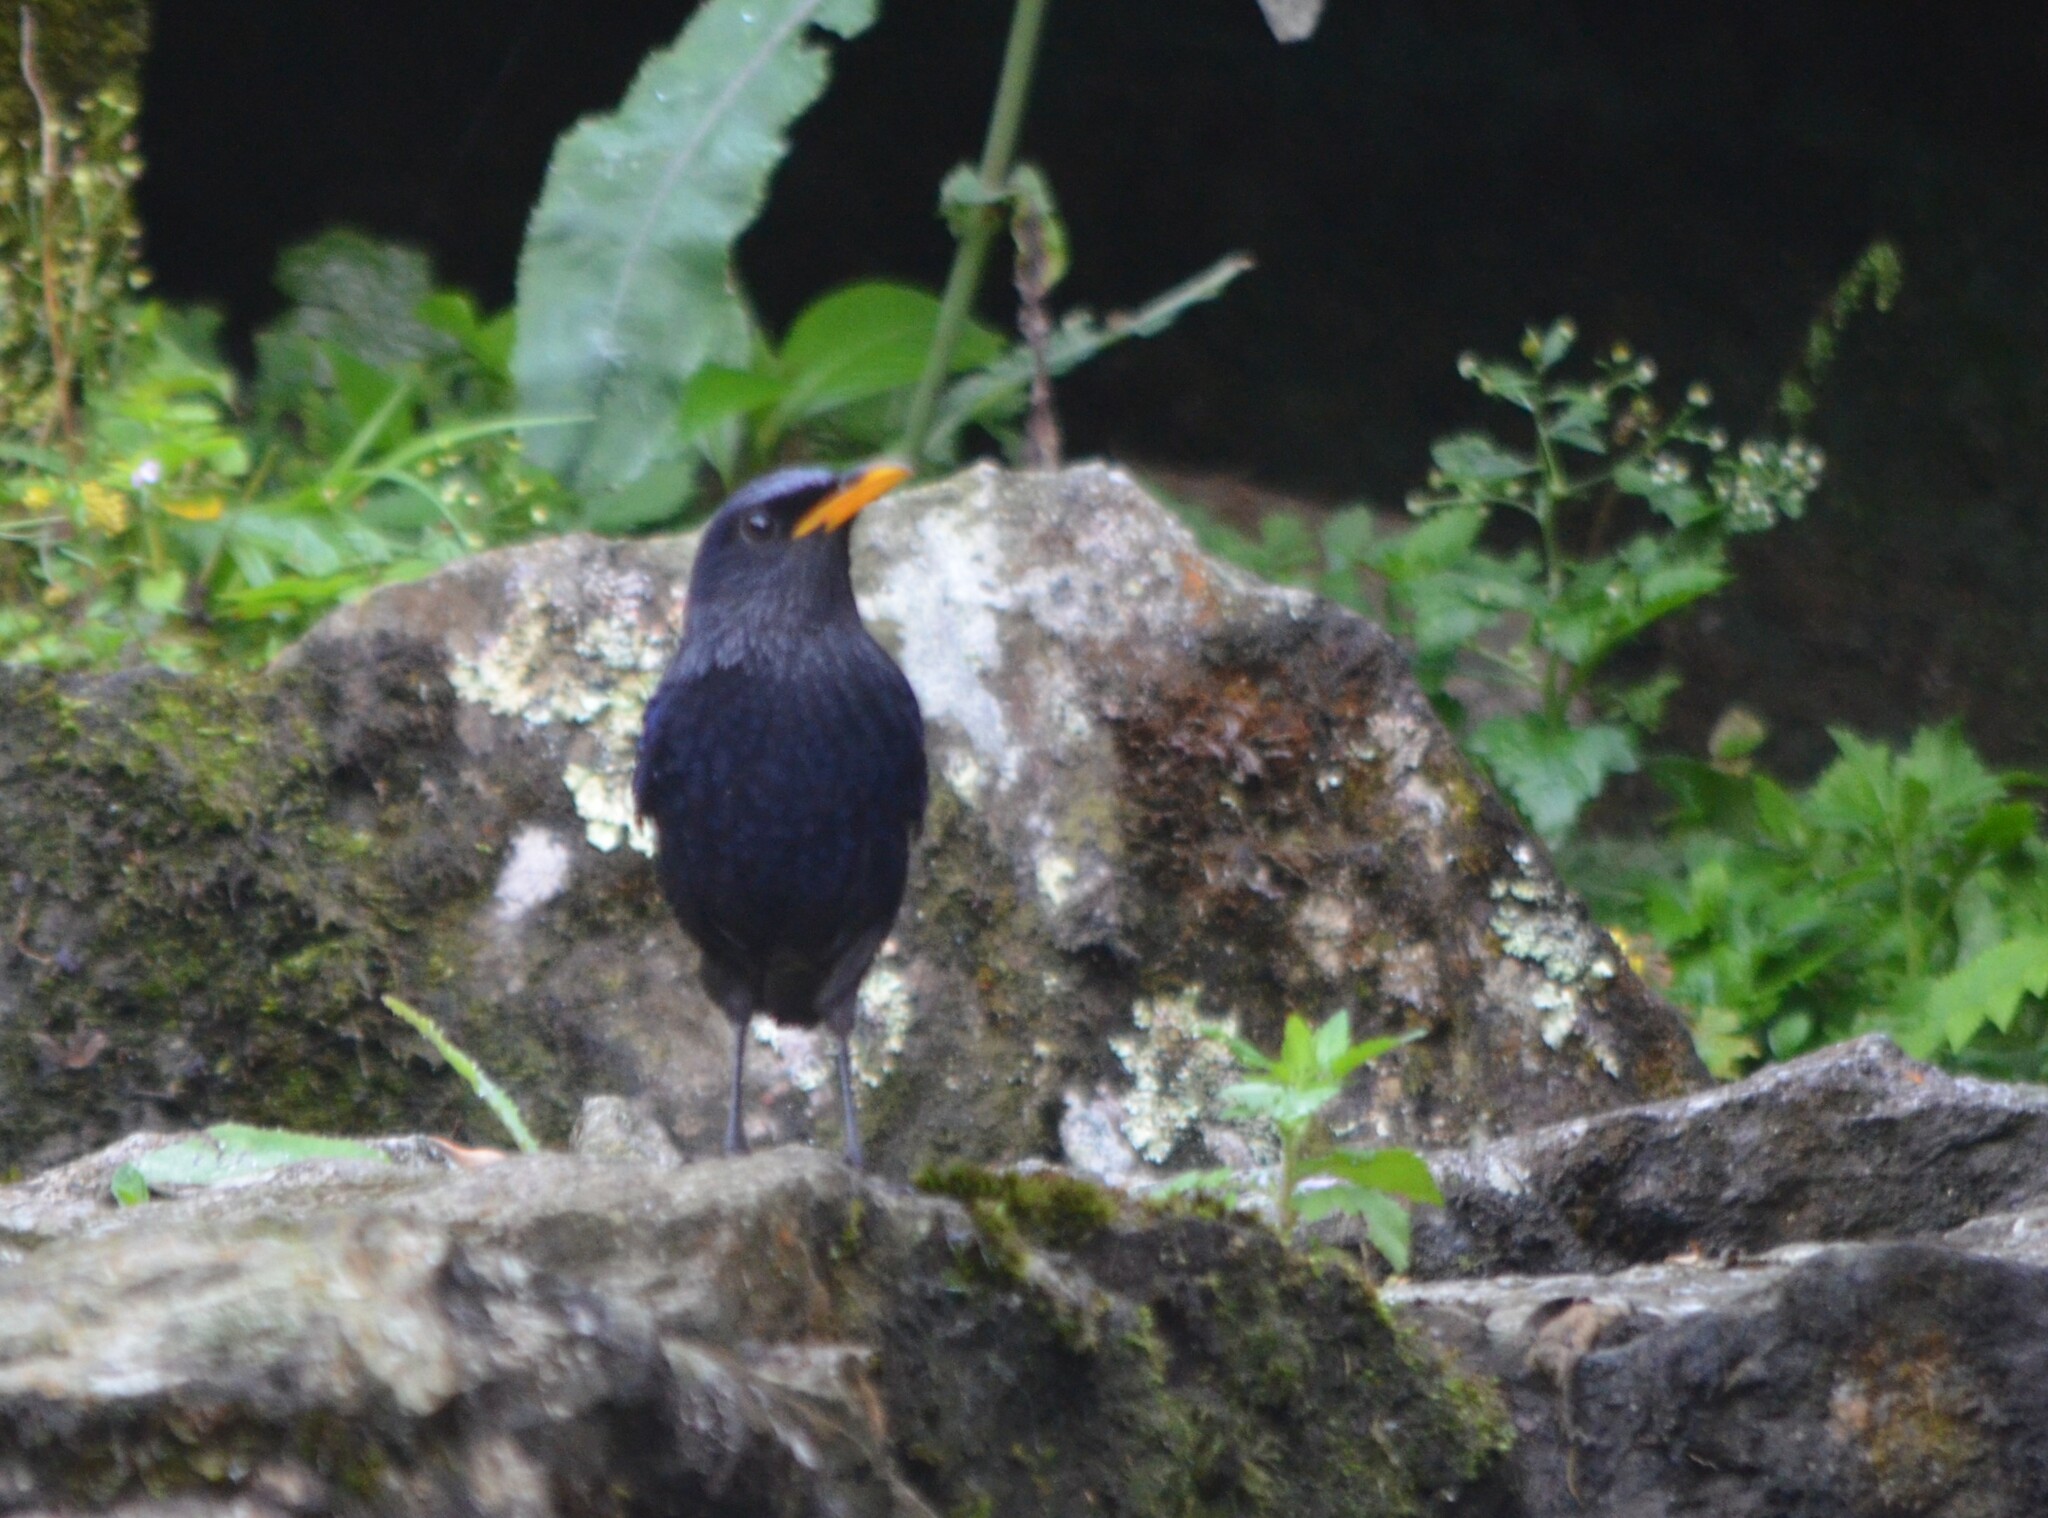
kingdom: Animalia
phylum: Chordata
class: Aves
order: Passeriformes
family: Muscicapidae
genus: Myophonus
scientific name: Myophonus caeruleus
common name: Blue whistling-thrush
